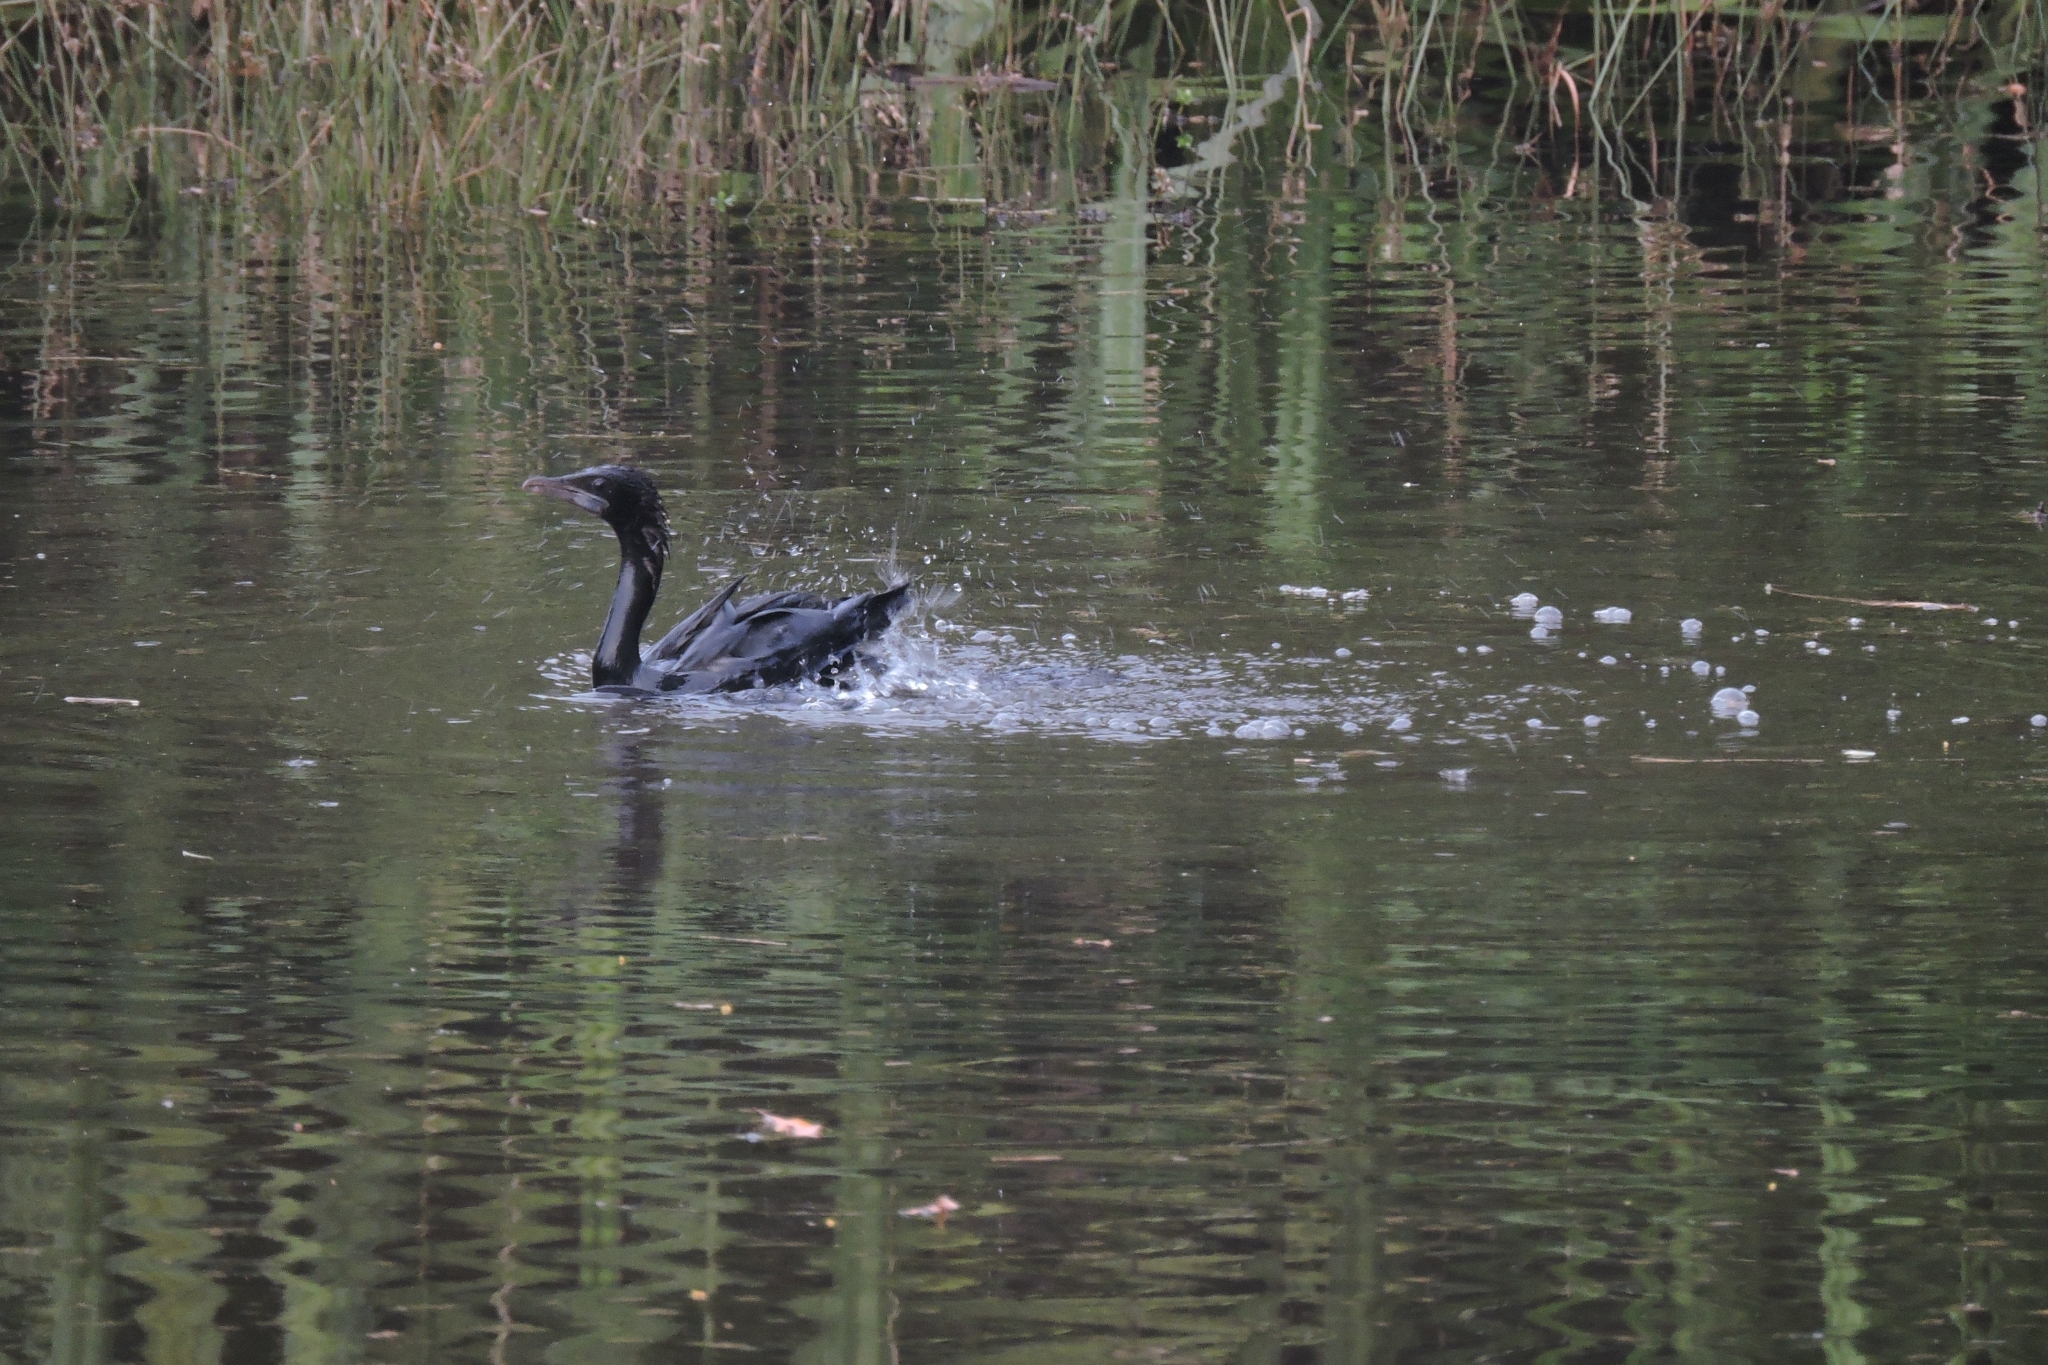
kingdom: Animalia
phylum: Chordata
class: Aves
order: Suliformes
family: Phalacrocoracidae
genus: Microcarbo
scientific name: Microcarbo niger
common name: Little cormorant
